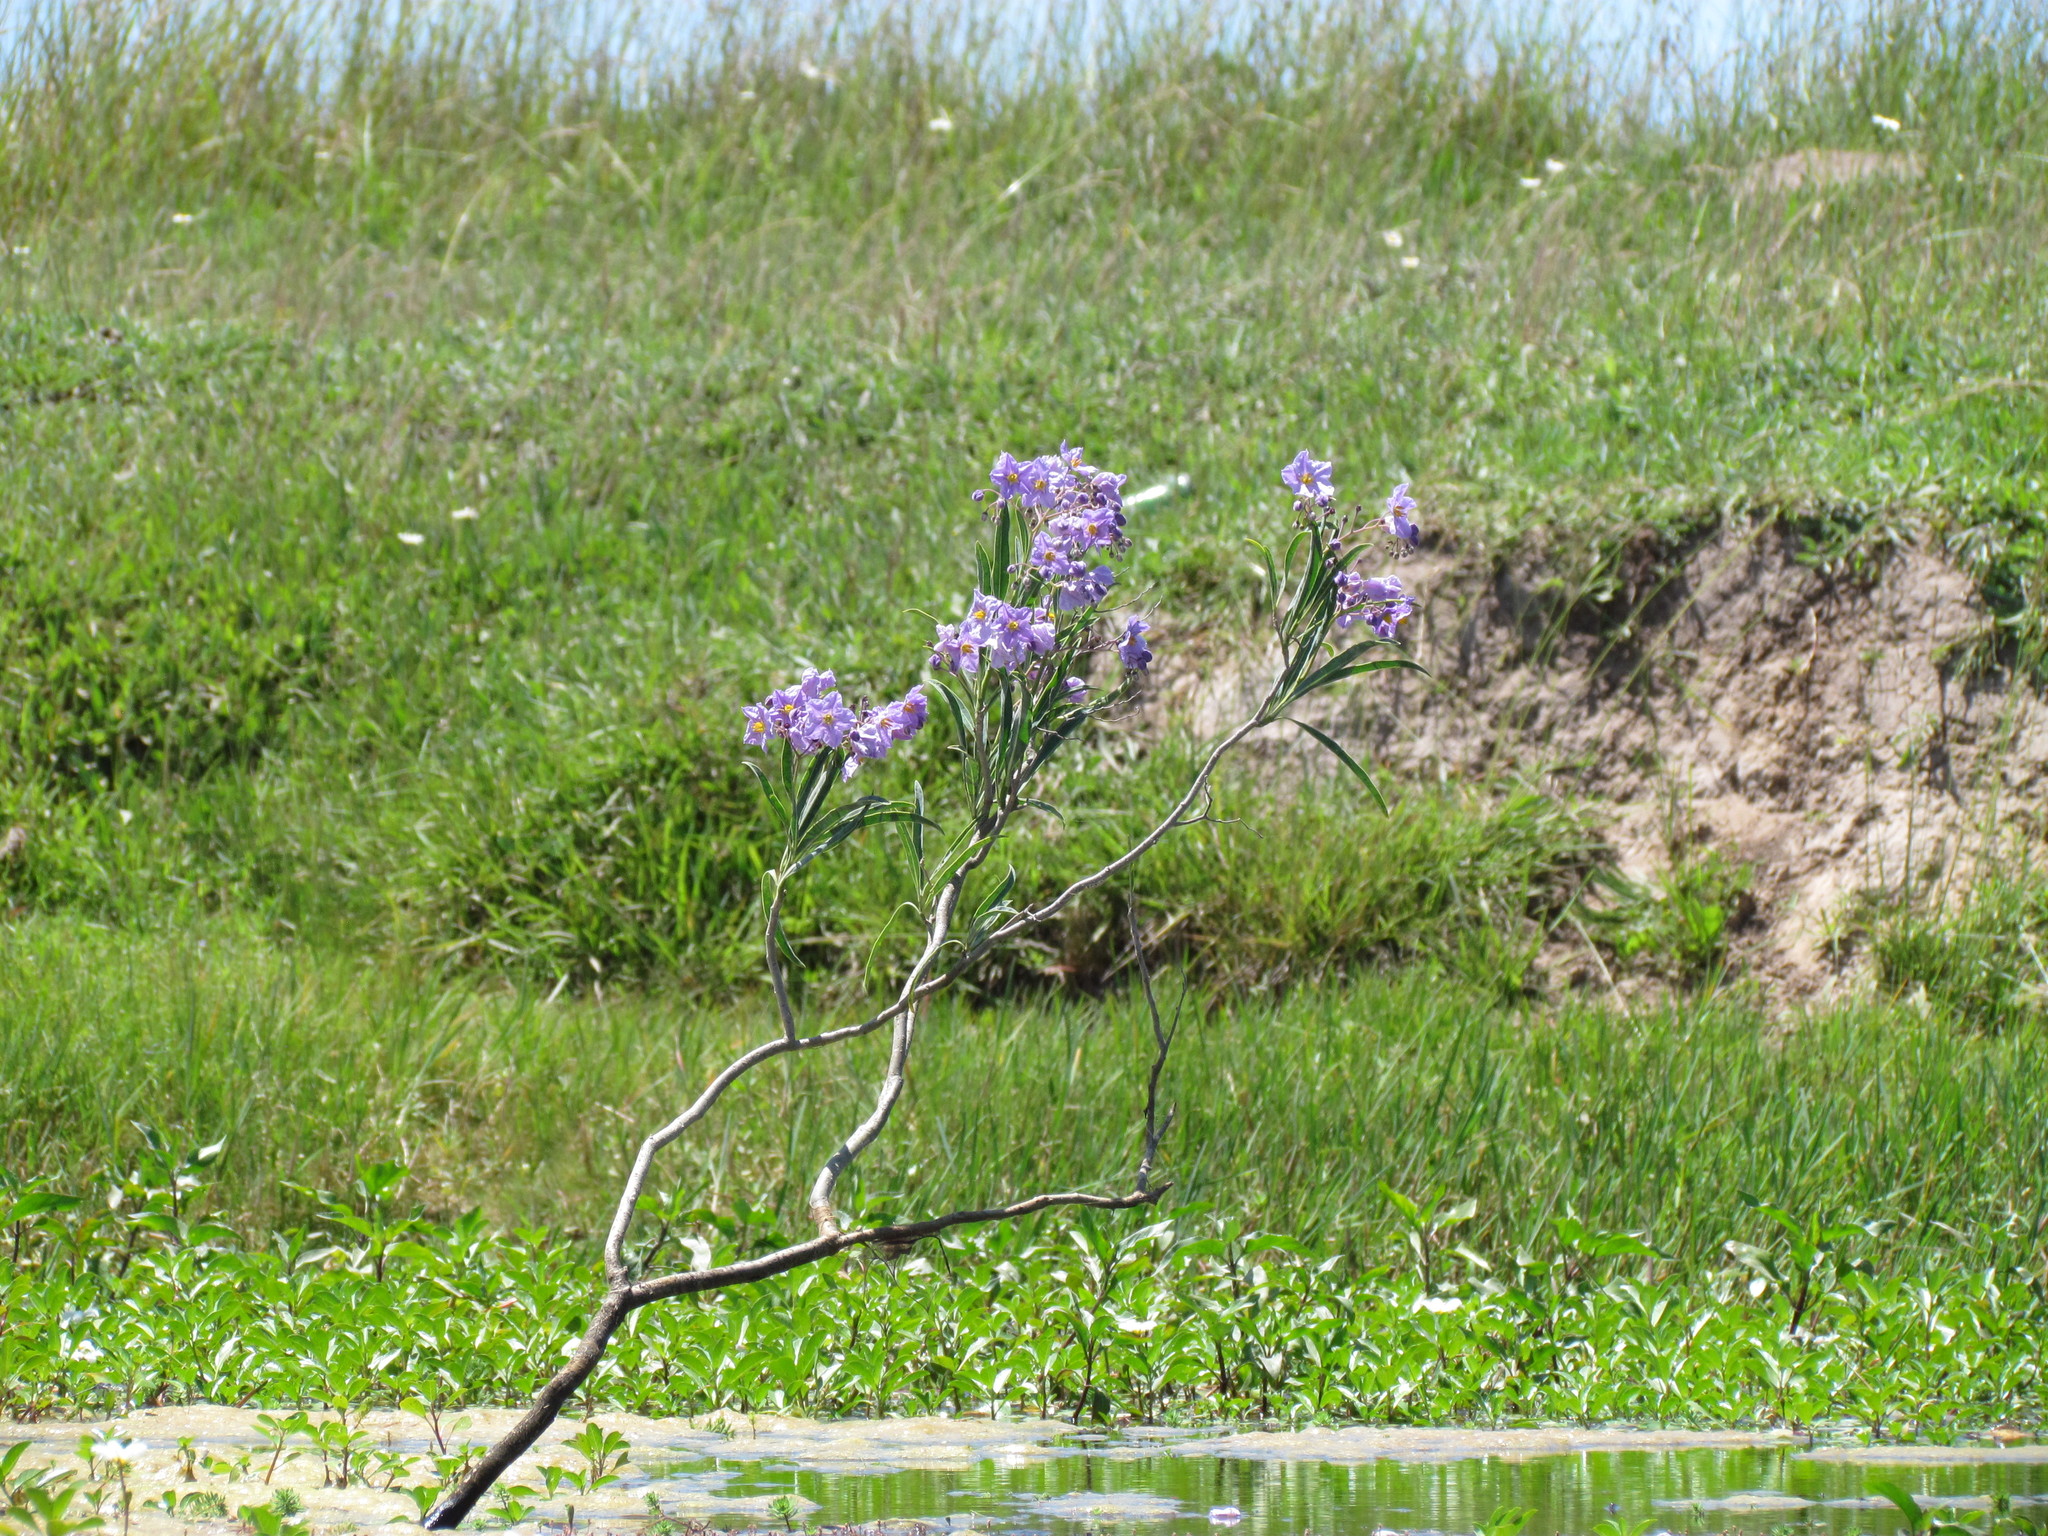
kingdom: Plantae
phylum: Tracheophyta
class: Magnoliopsida
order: Solanales
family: Solanaceae
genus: Solanum
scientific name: Solanum glaucophyllum
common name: Waxyleaf nightshade
